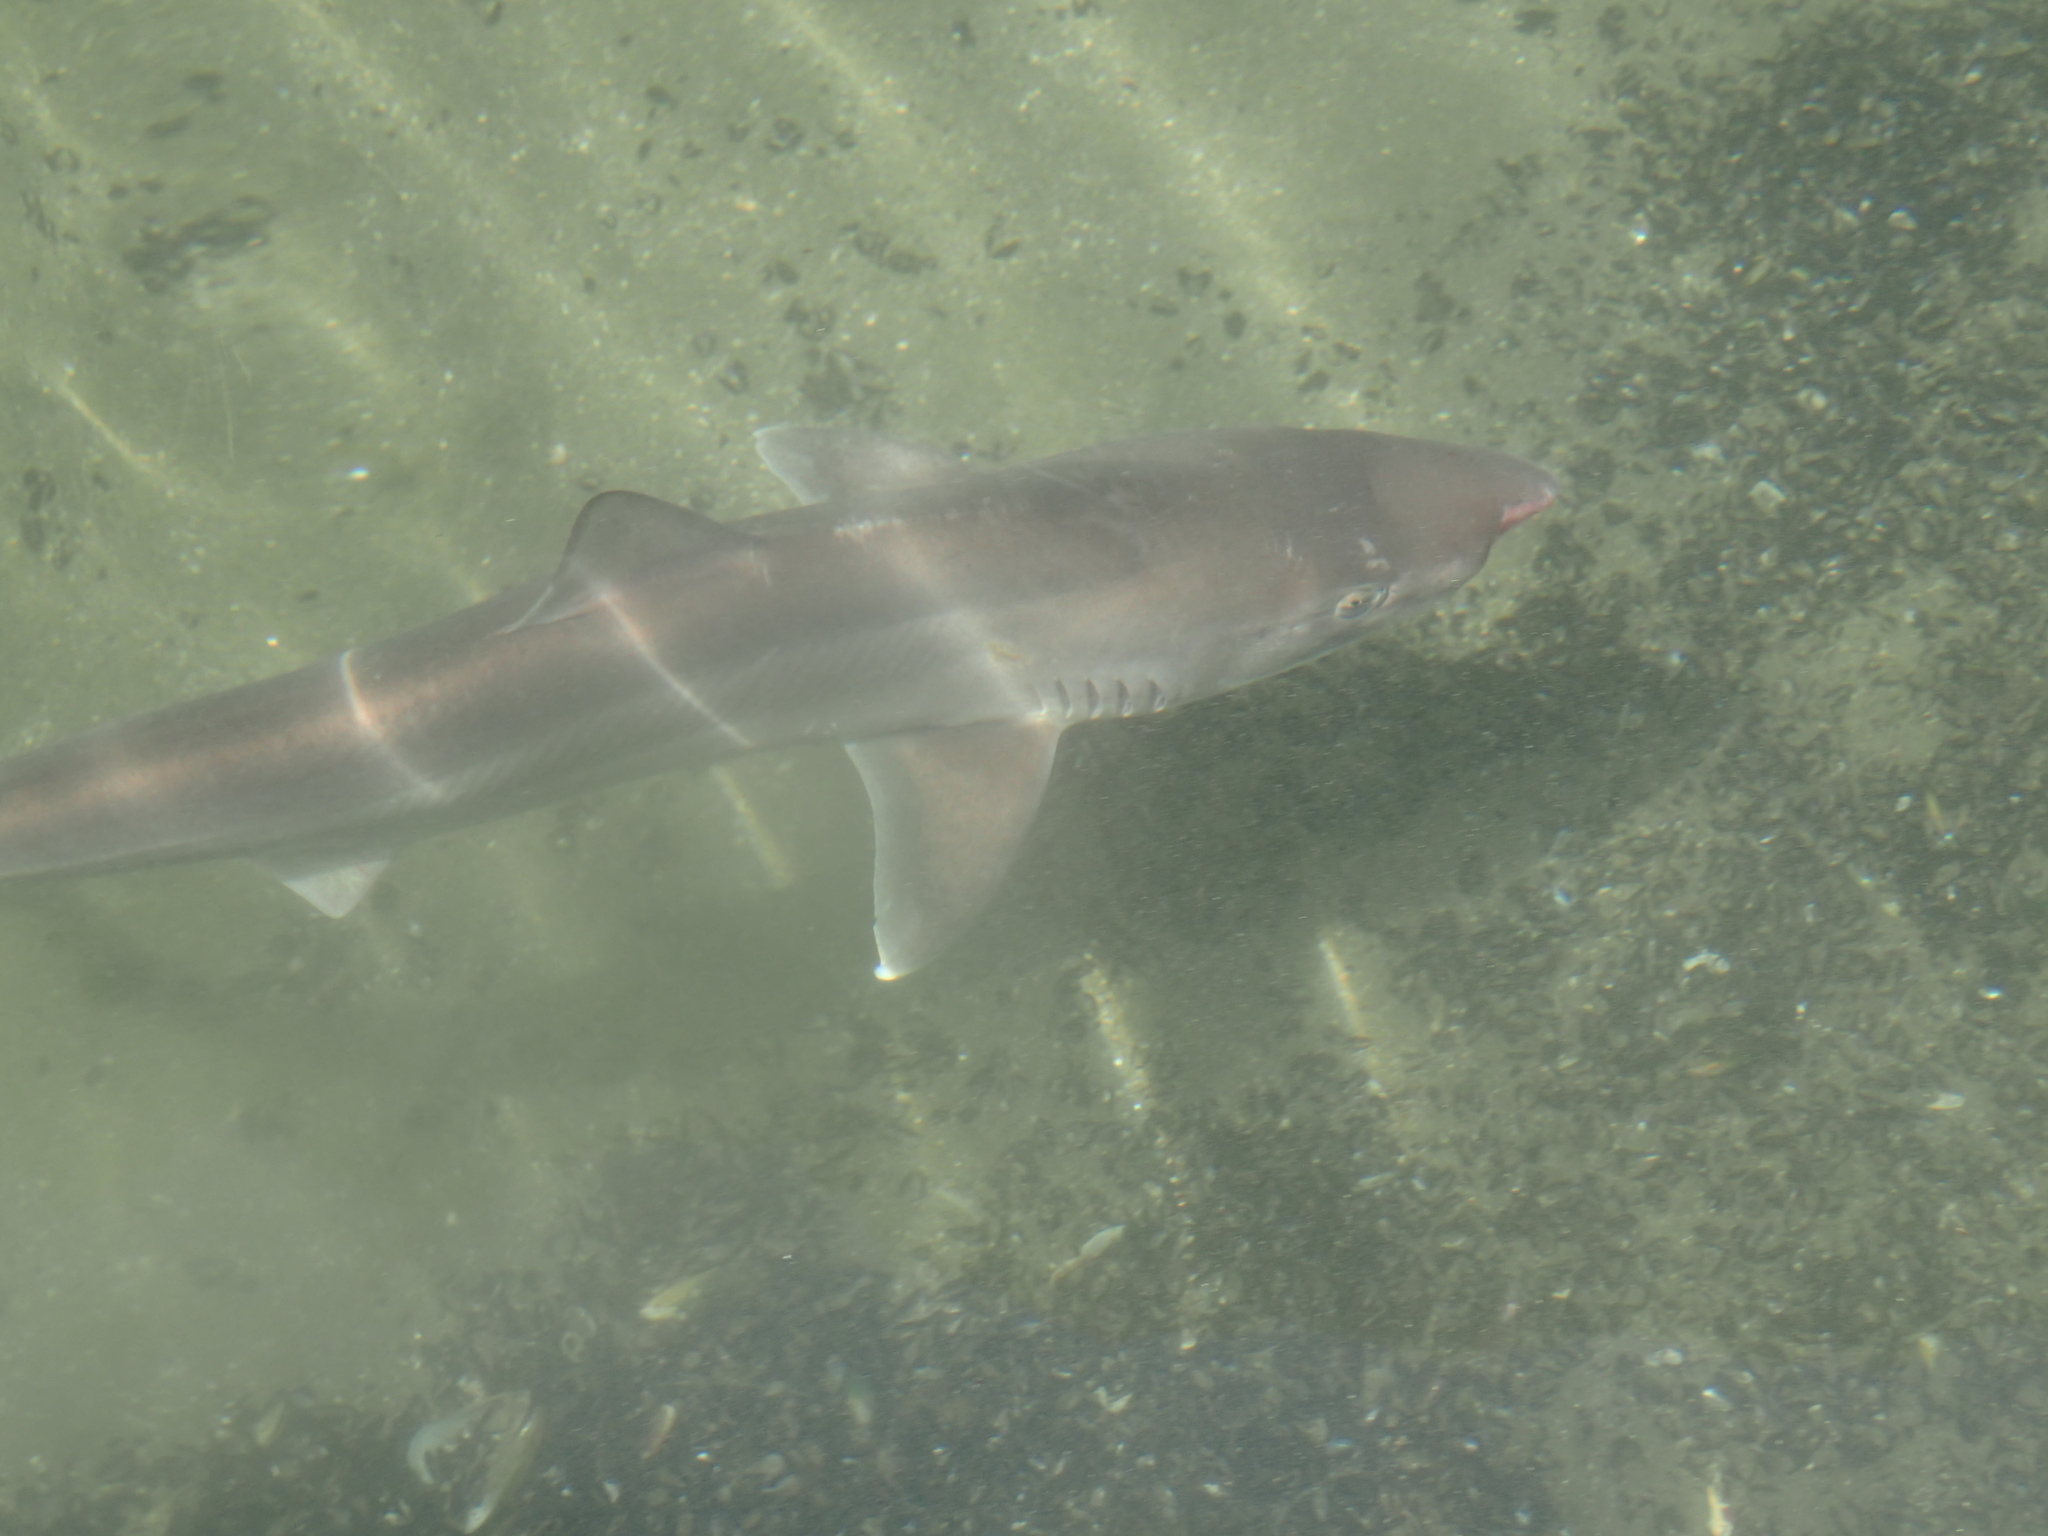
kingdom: Animalia
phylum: Chordata
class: Elasmobranchii
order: Carcharhiniformes
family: Triakidae
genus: Galeorhinus
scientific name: Galeorhinus galeus
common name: Tope
